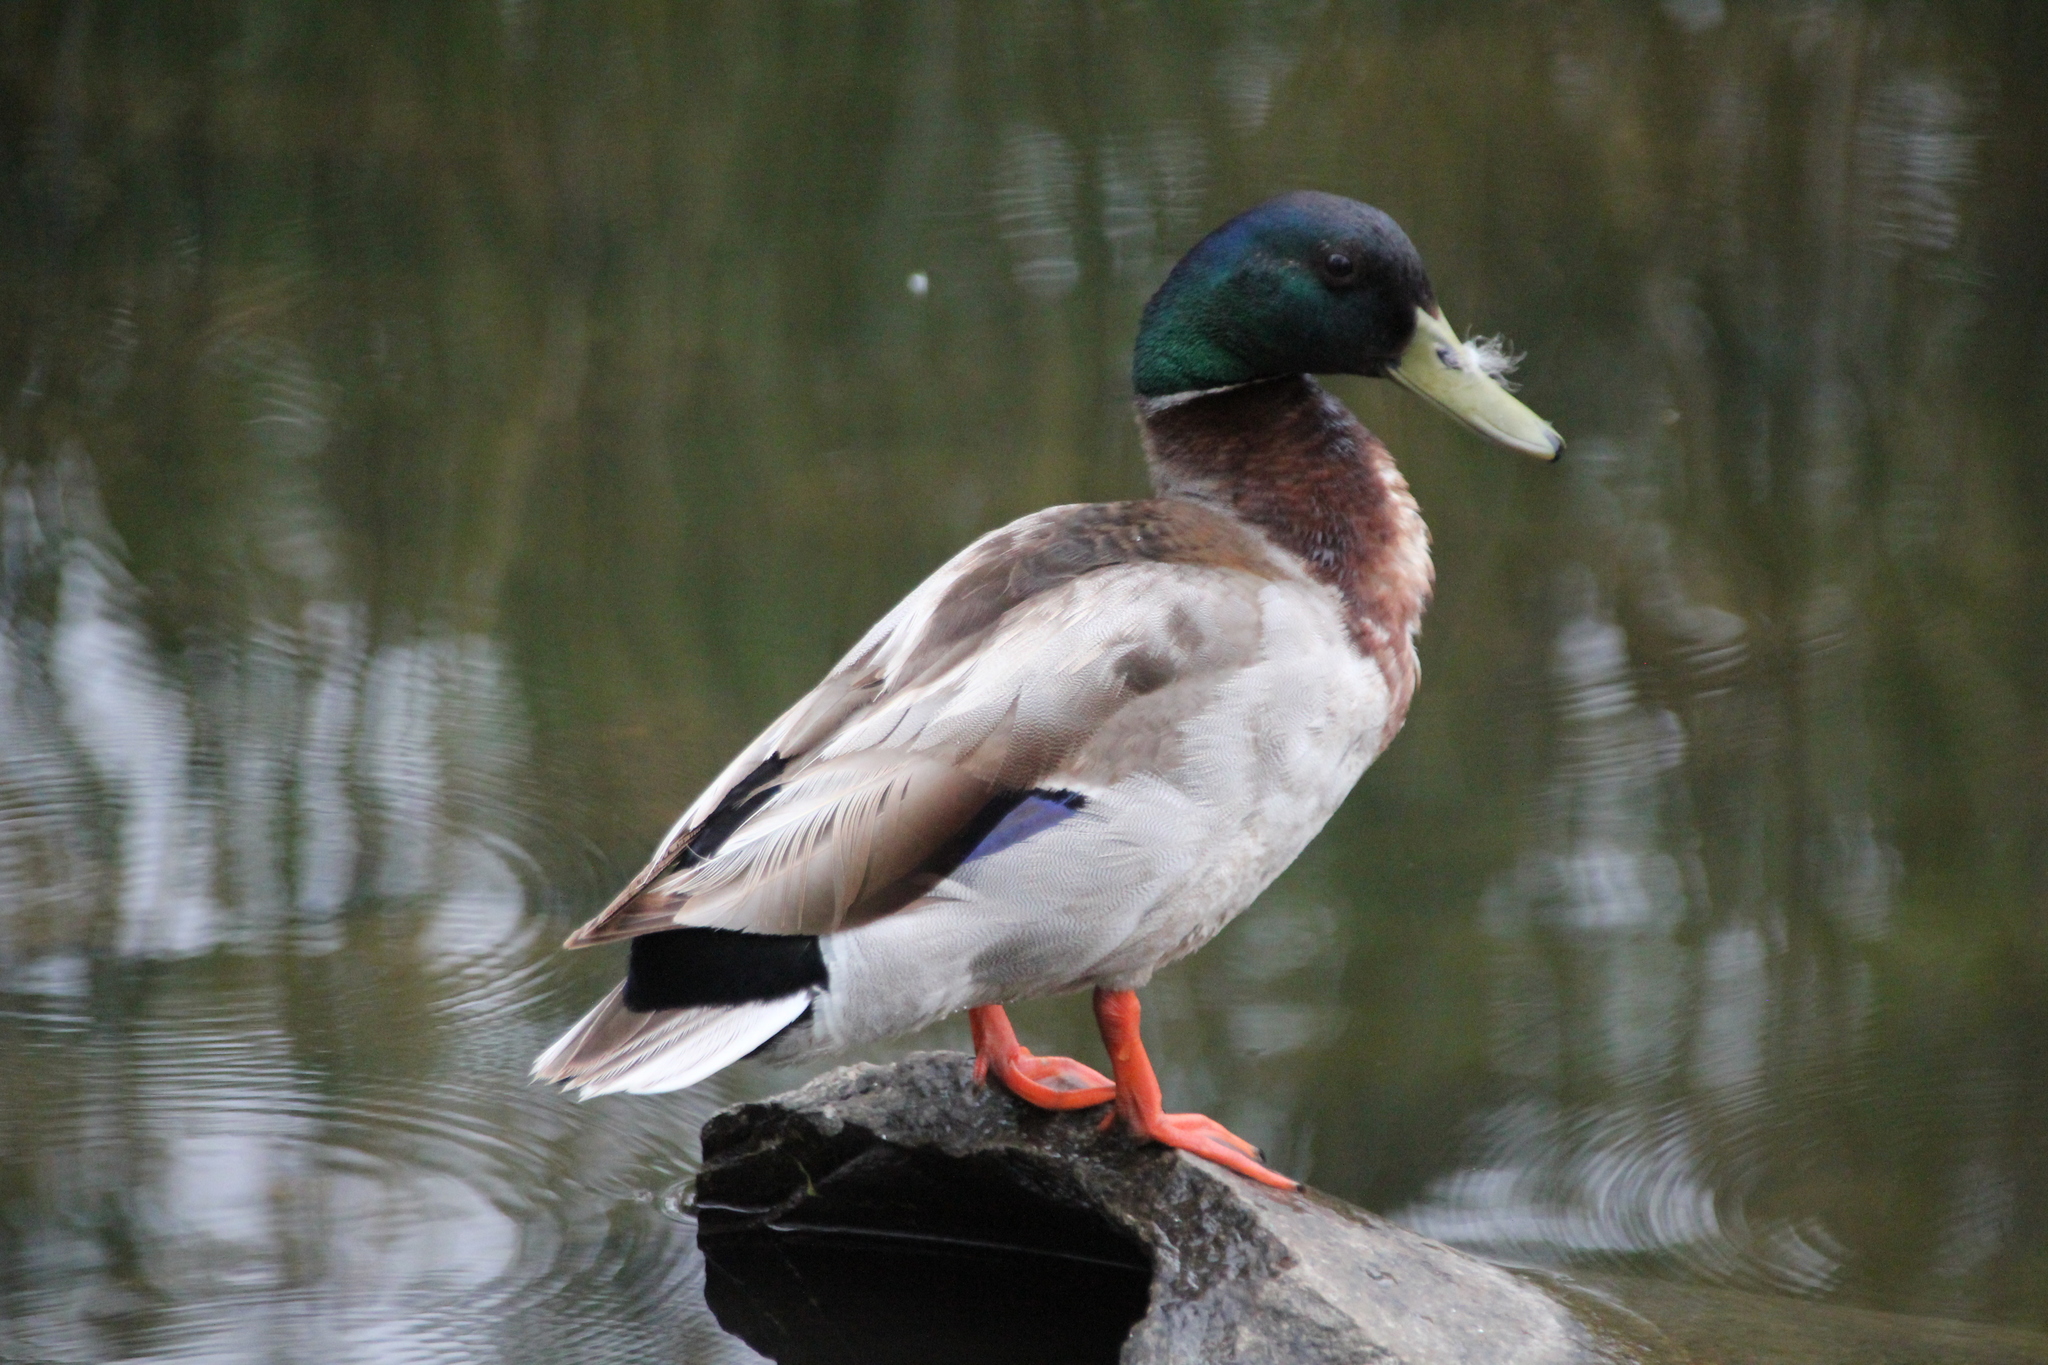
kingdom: Animalia
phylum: Chordata
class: Aves
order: Anseriformes
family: Anatidae
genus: Anas
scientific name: Anas platyrhynchos
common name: Mallard
